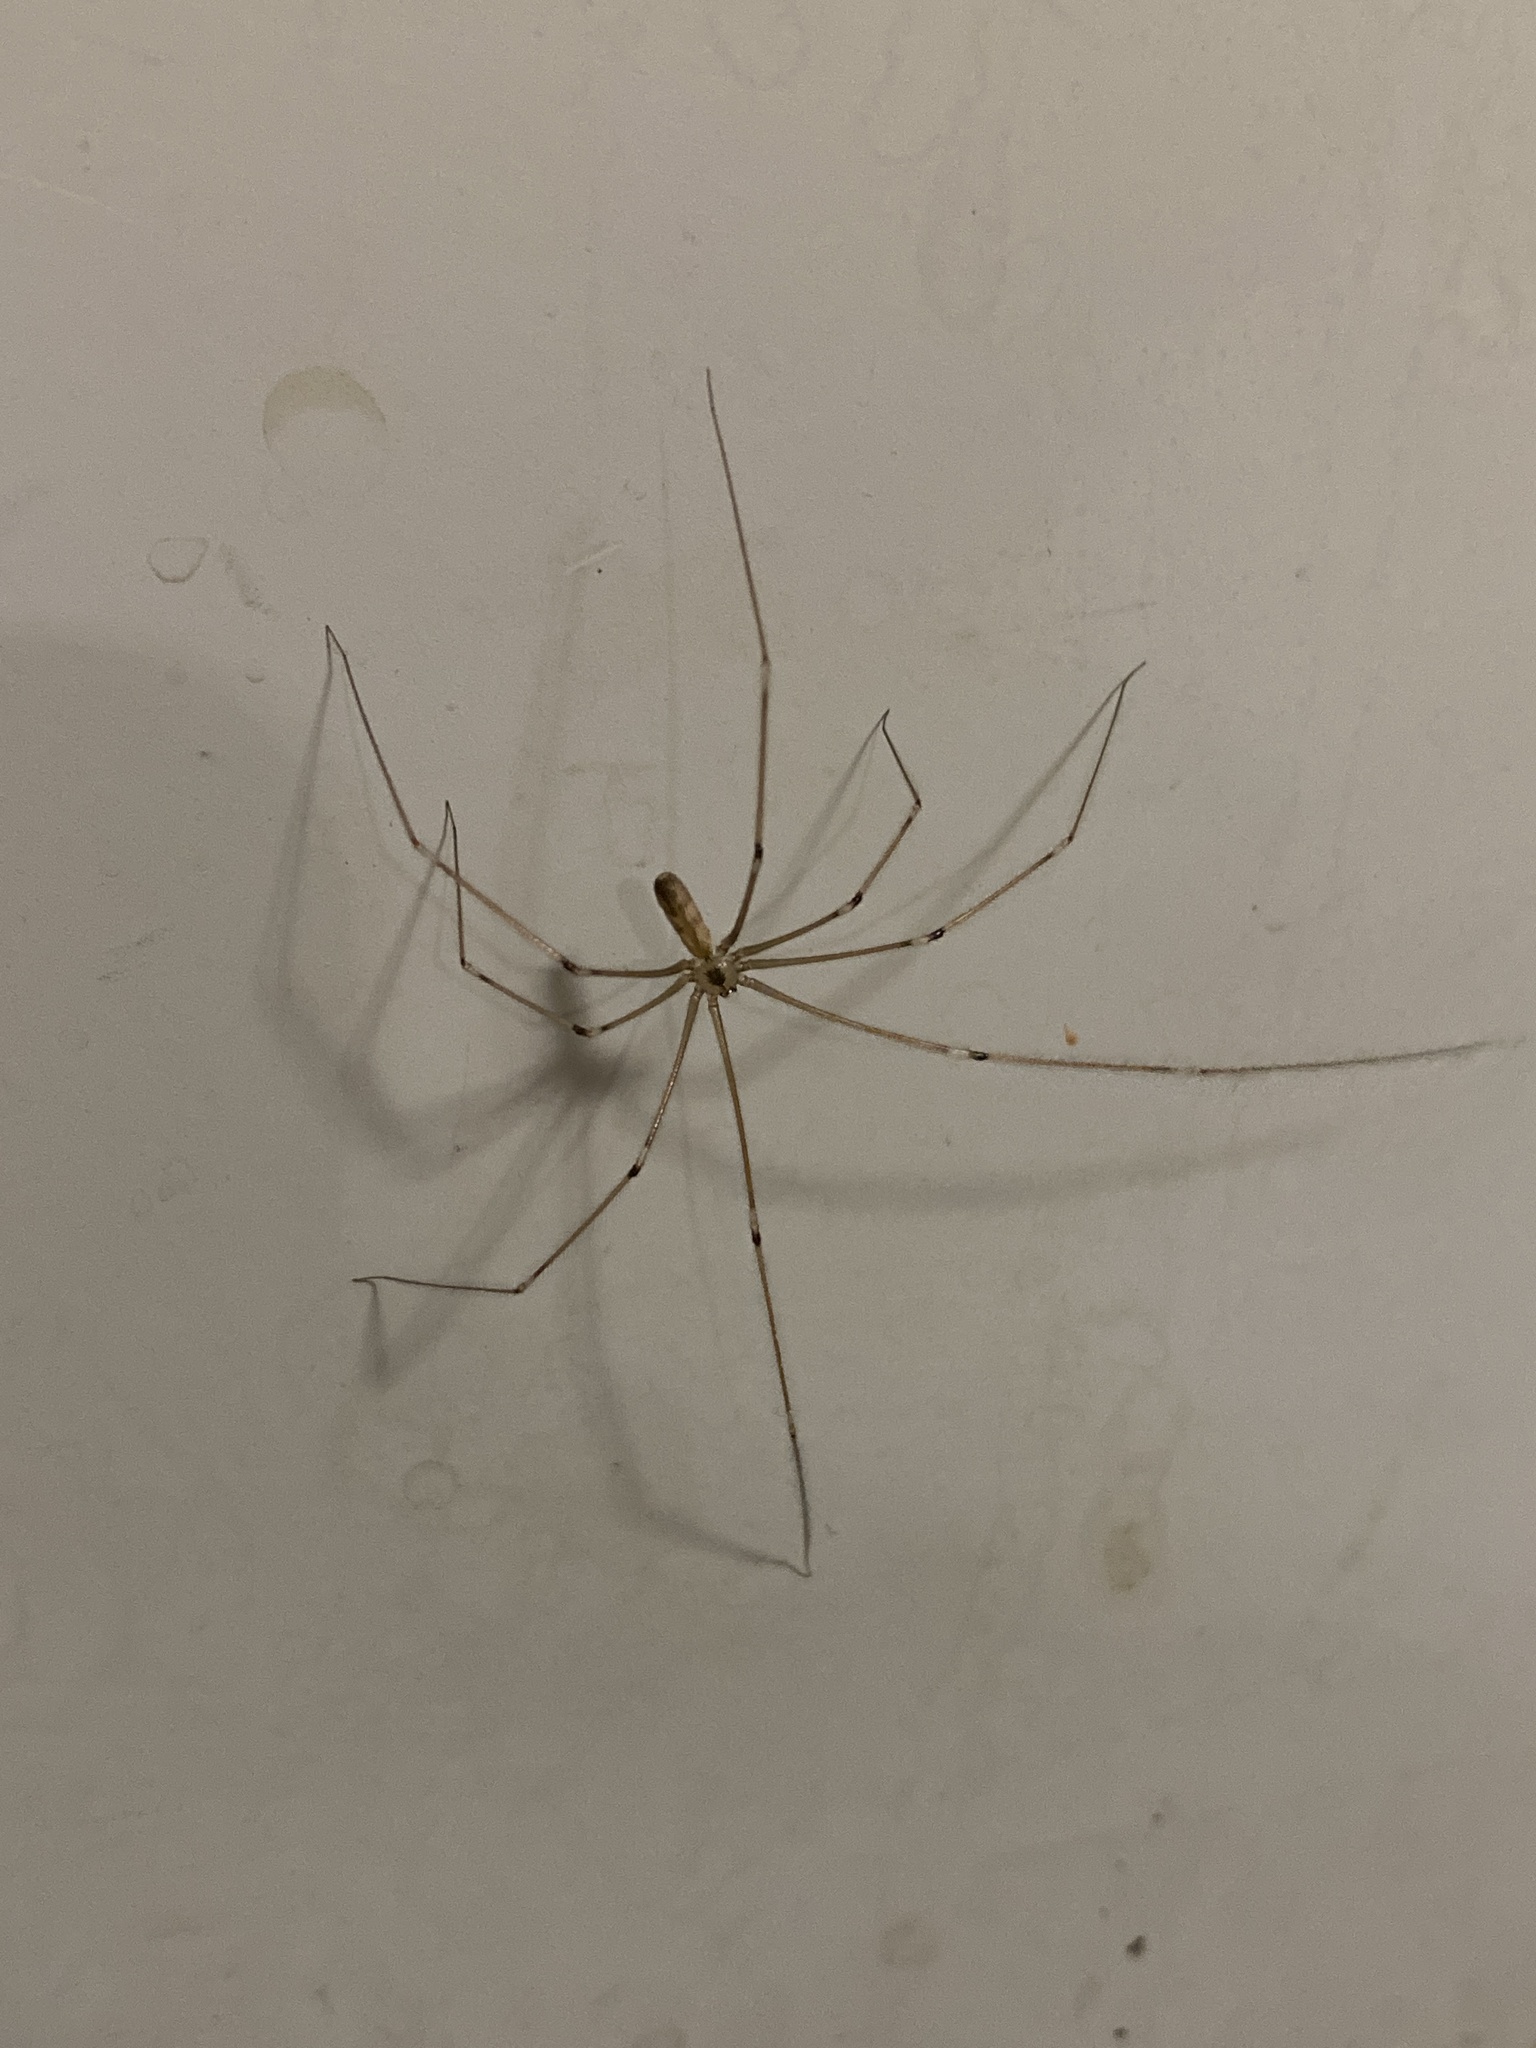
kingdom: Animalia
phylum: Arthropoda
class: Arachnida
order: Araneae
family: Pholcidae
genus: Pholcus
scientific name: Pholcus phalangioides
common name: Longbodied cellar spider
